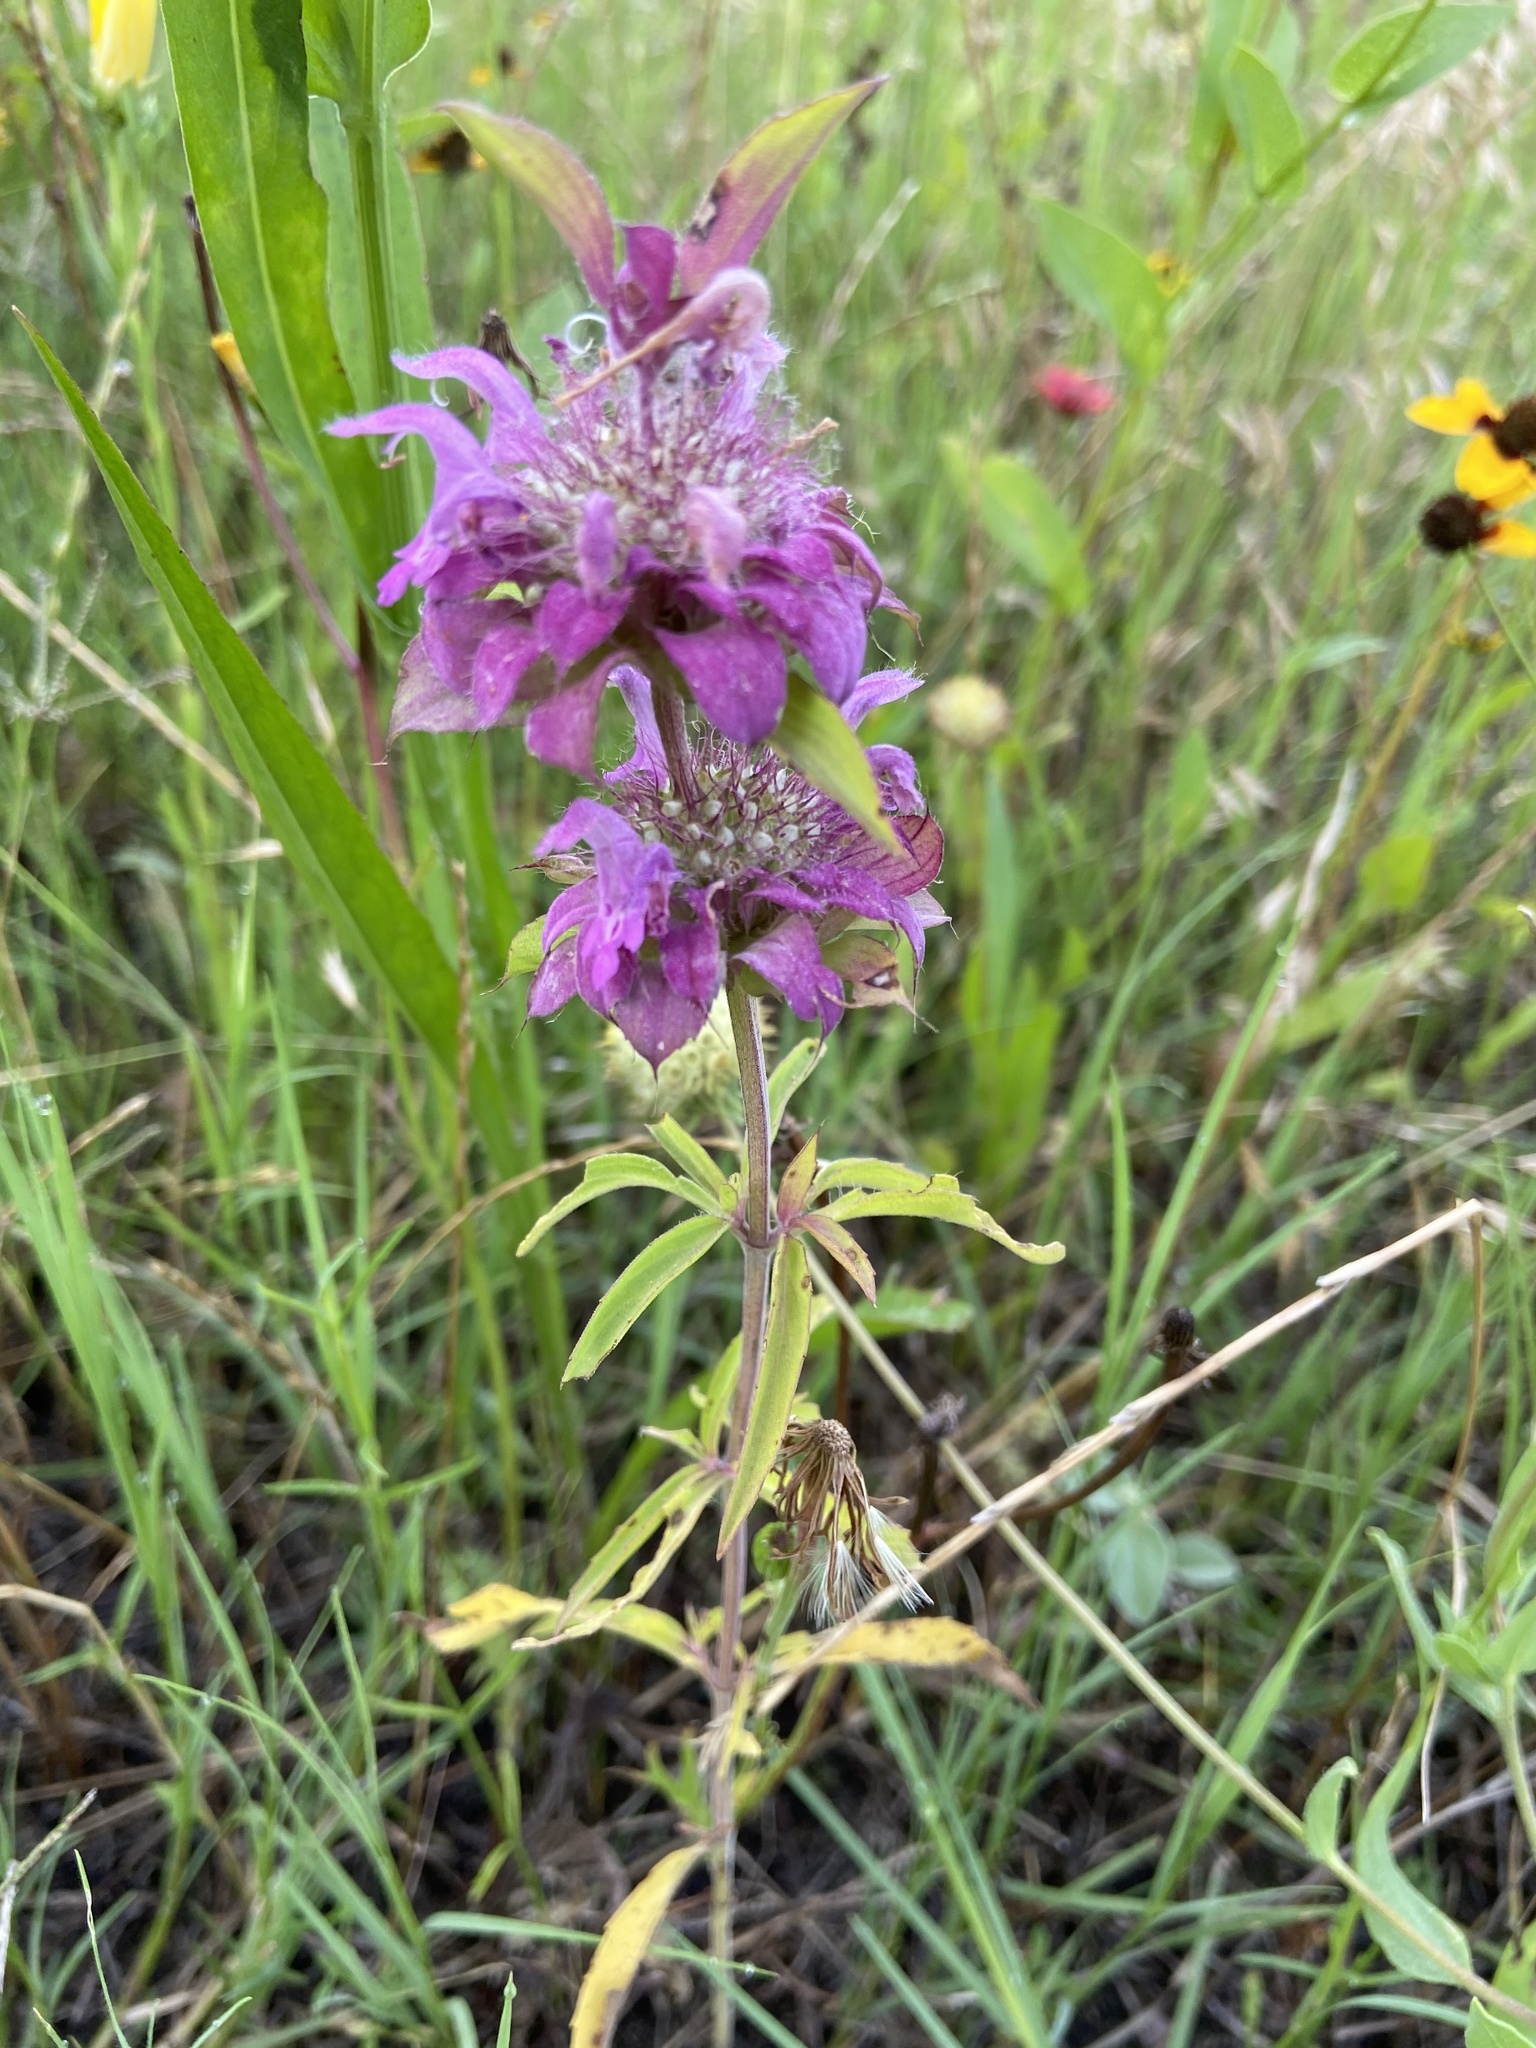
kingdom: Plantae
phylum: Tracheophyta
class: Magnoliopsida
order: Lamiales
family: Lamiaceae
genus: Monarda
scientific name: Monarda citriodora
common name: Lemon beebalm
